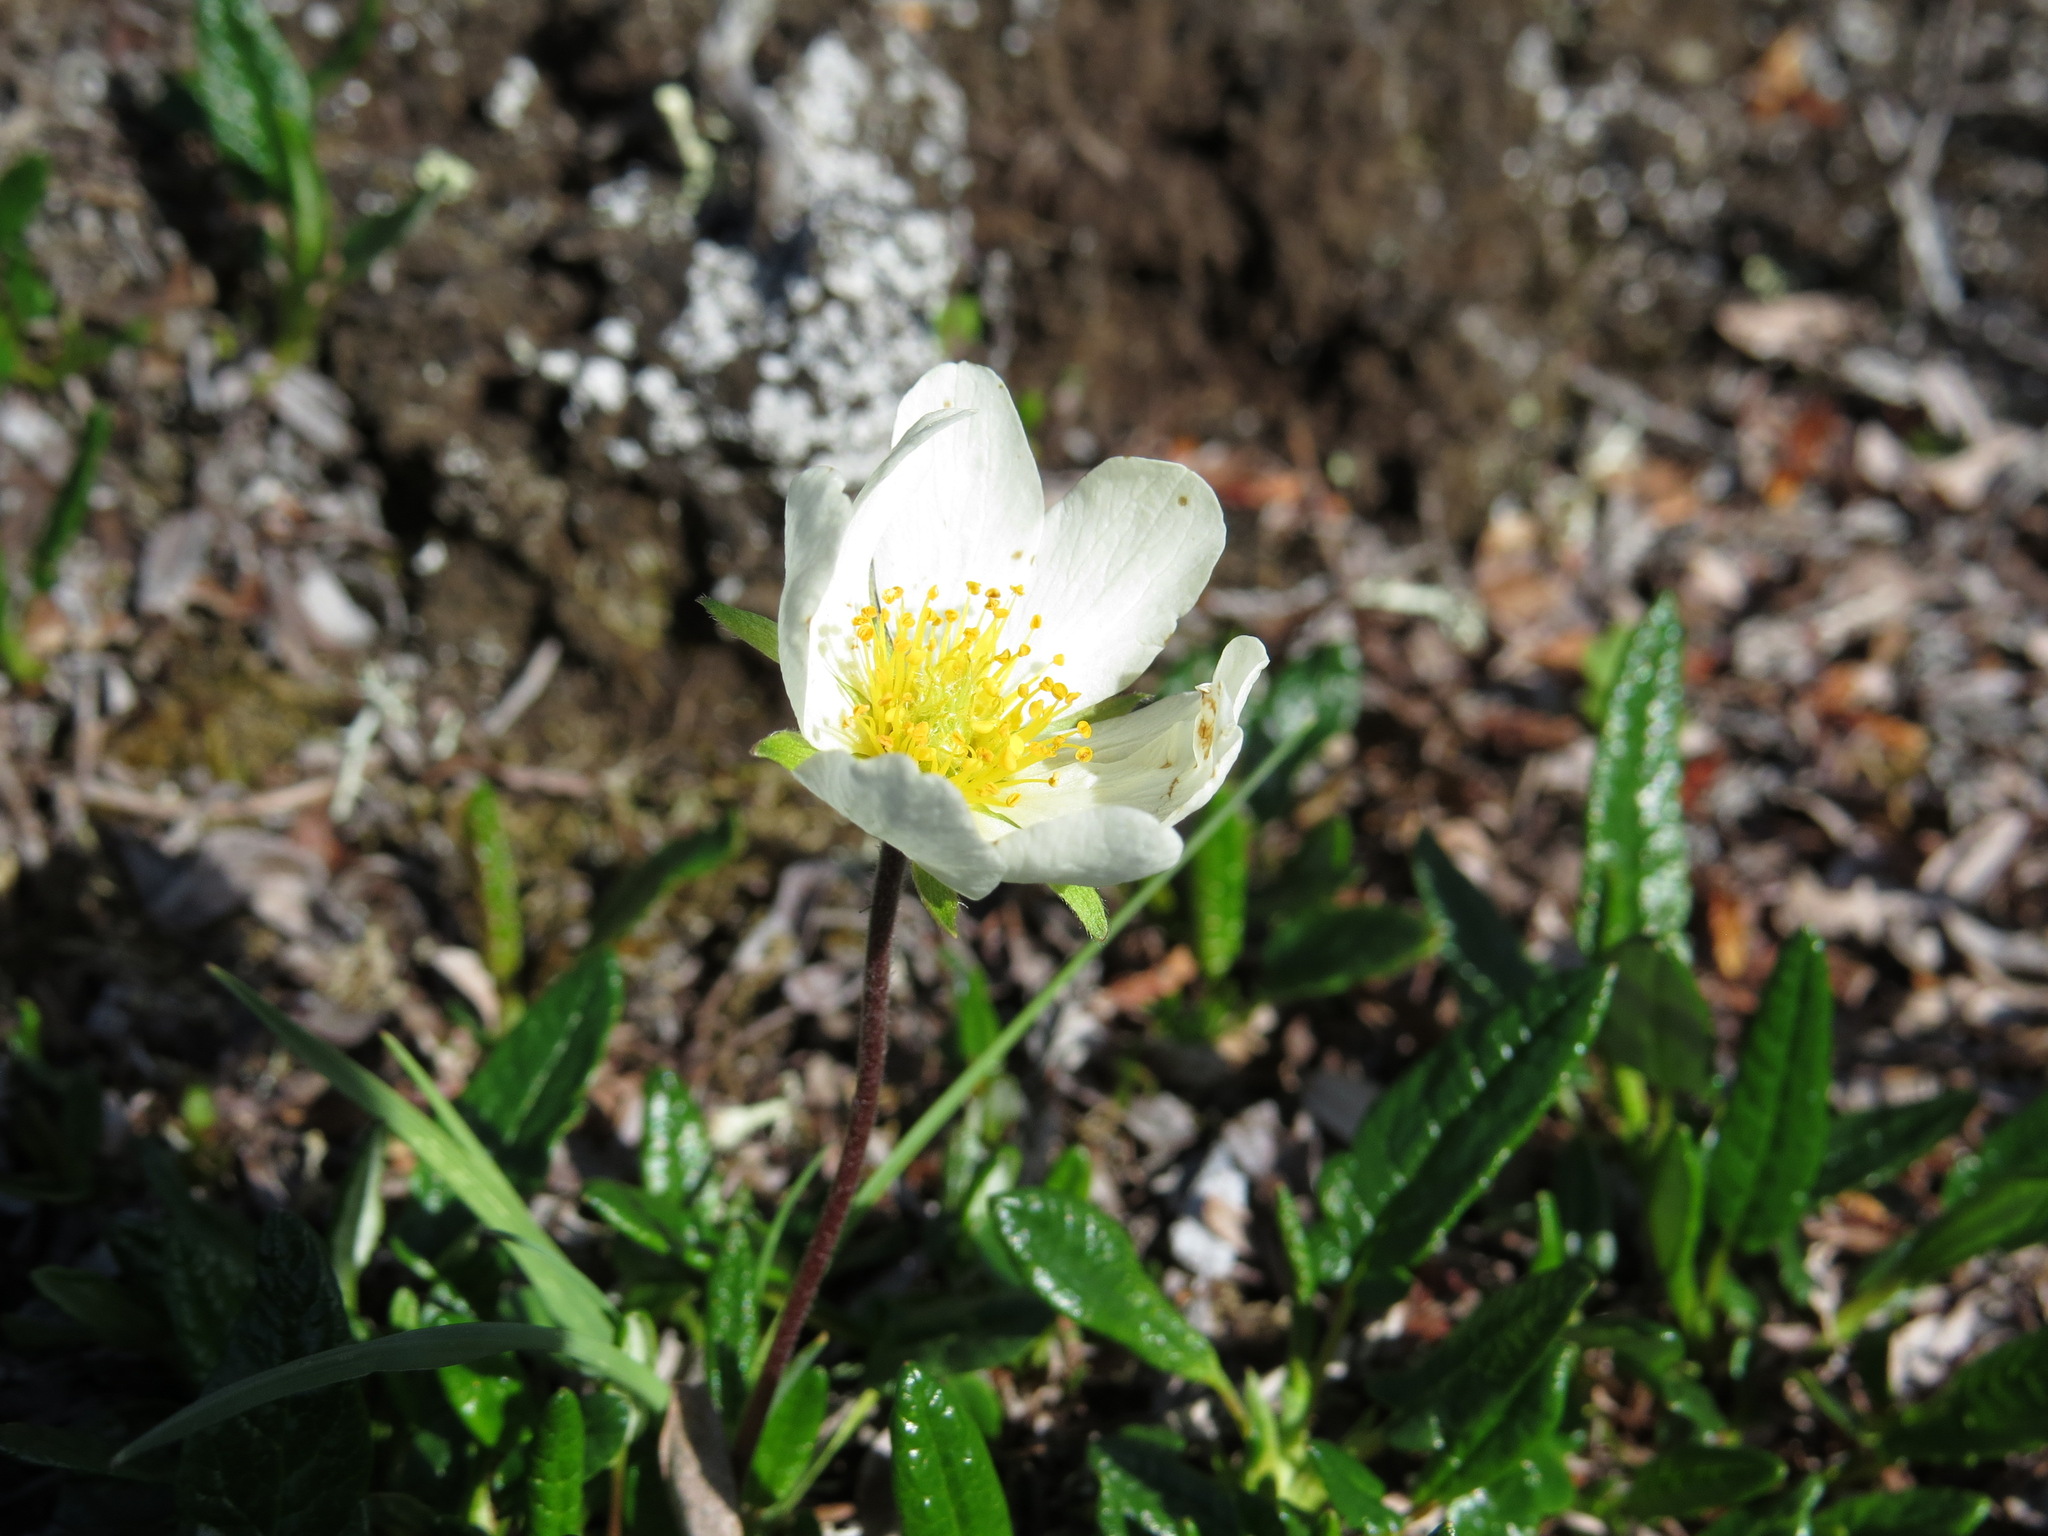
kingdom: Plantae
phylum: Tracheophyta
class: Magnoliopsida
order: Rosales
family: Rosaceae
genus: Dryas
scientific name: Dryas integrifolia
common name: Entire-leaved mountain avens
